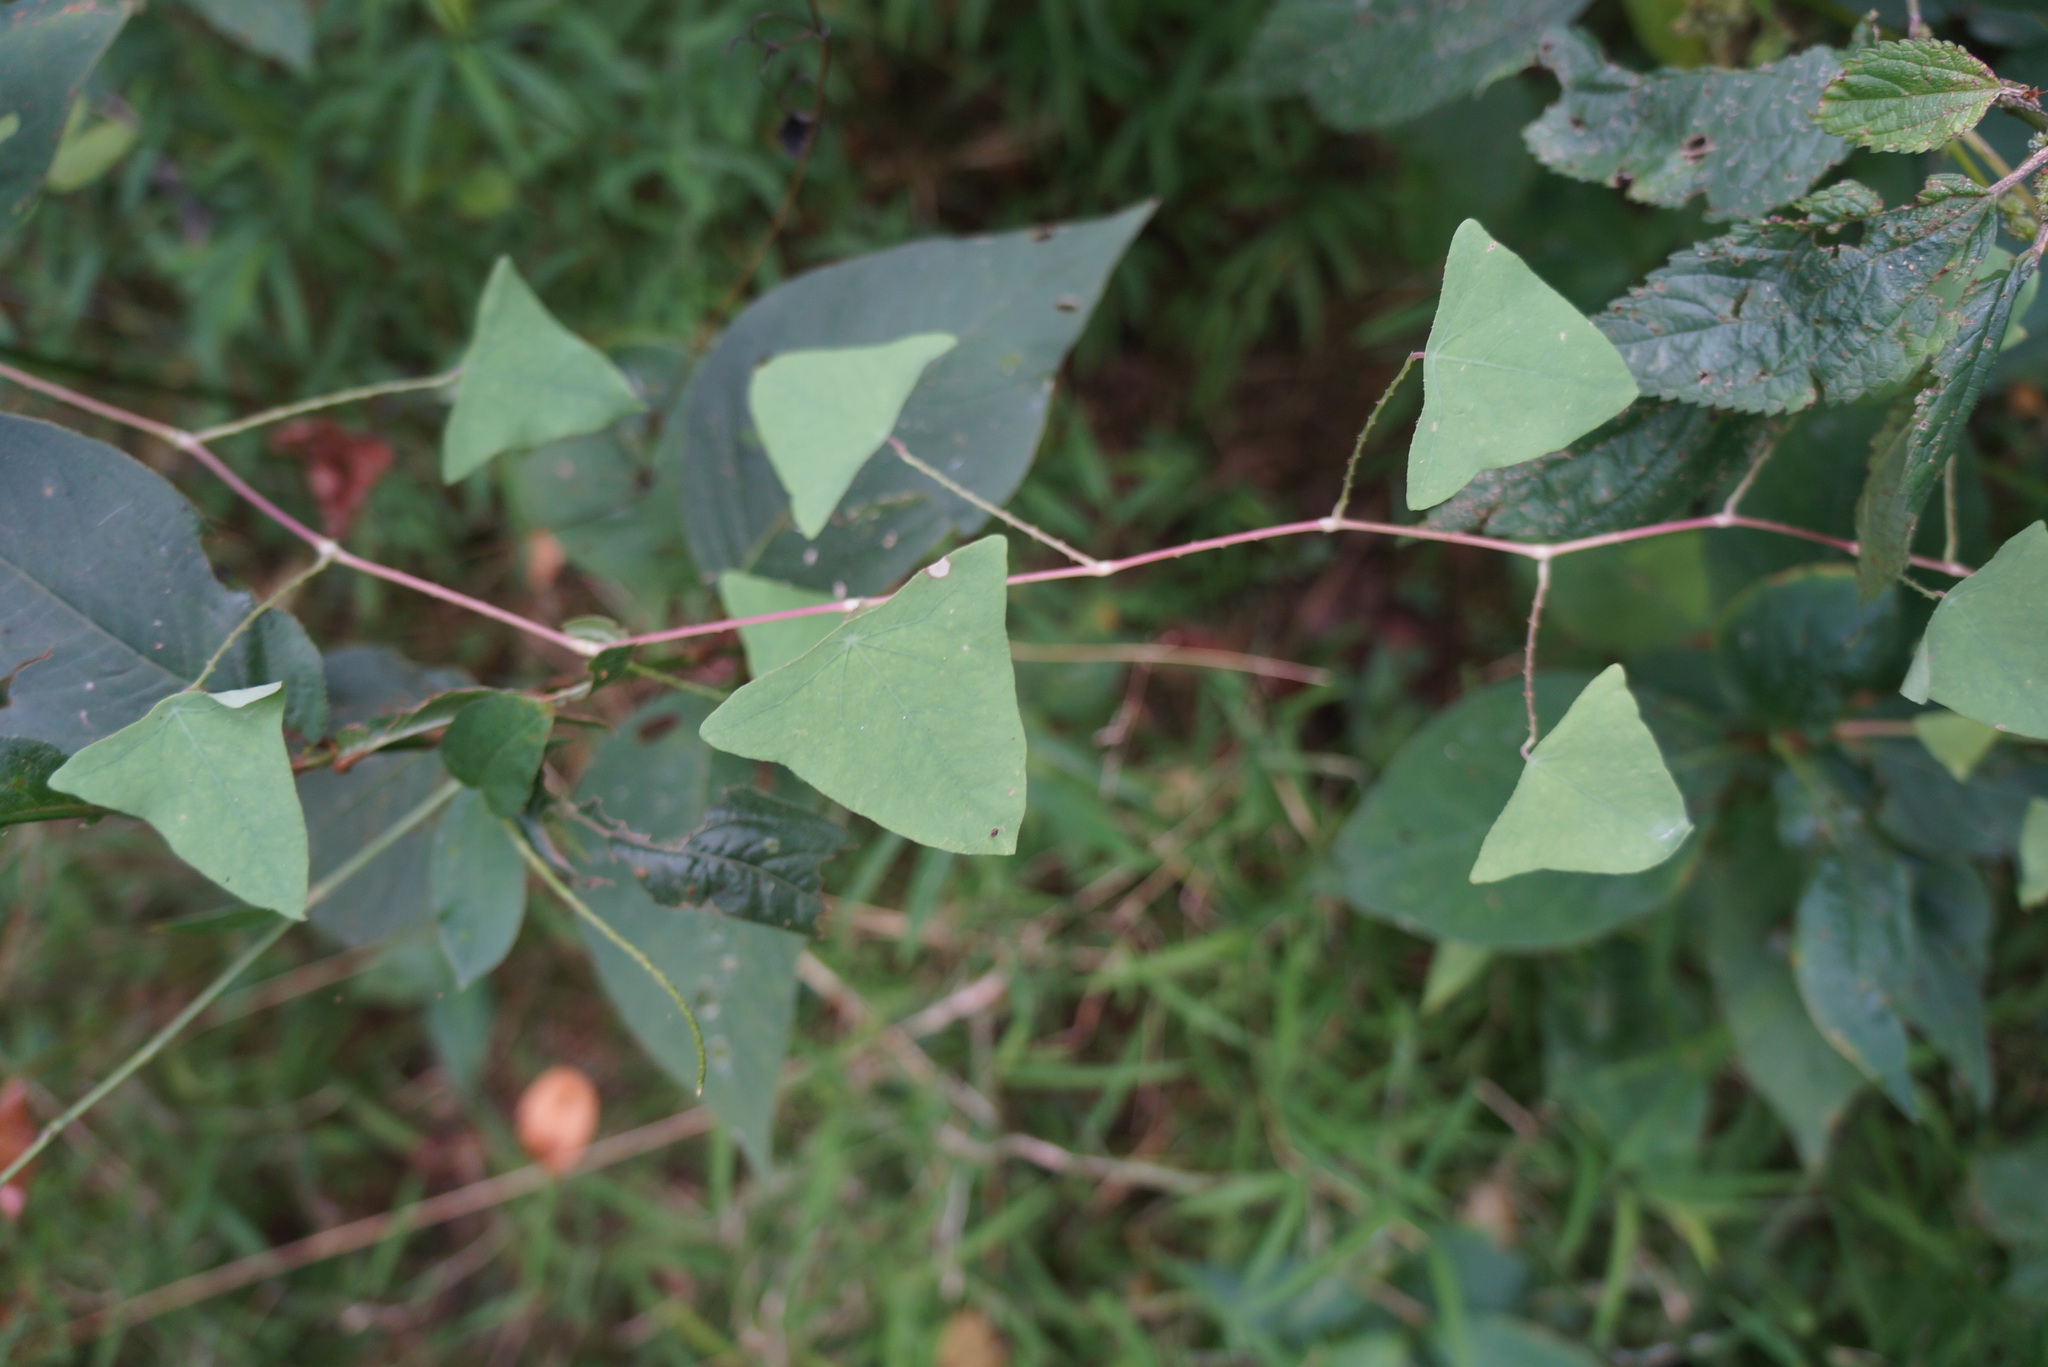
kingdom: Plantae
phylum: Tracheophyta
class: Magnoliopsida
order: Caryophyllales
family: Polygonaceae
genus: Persicaria
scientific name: Persicaria perfoliata
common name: Asiatic tearthumb
